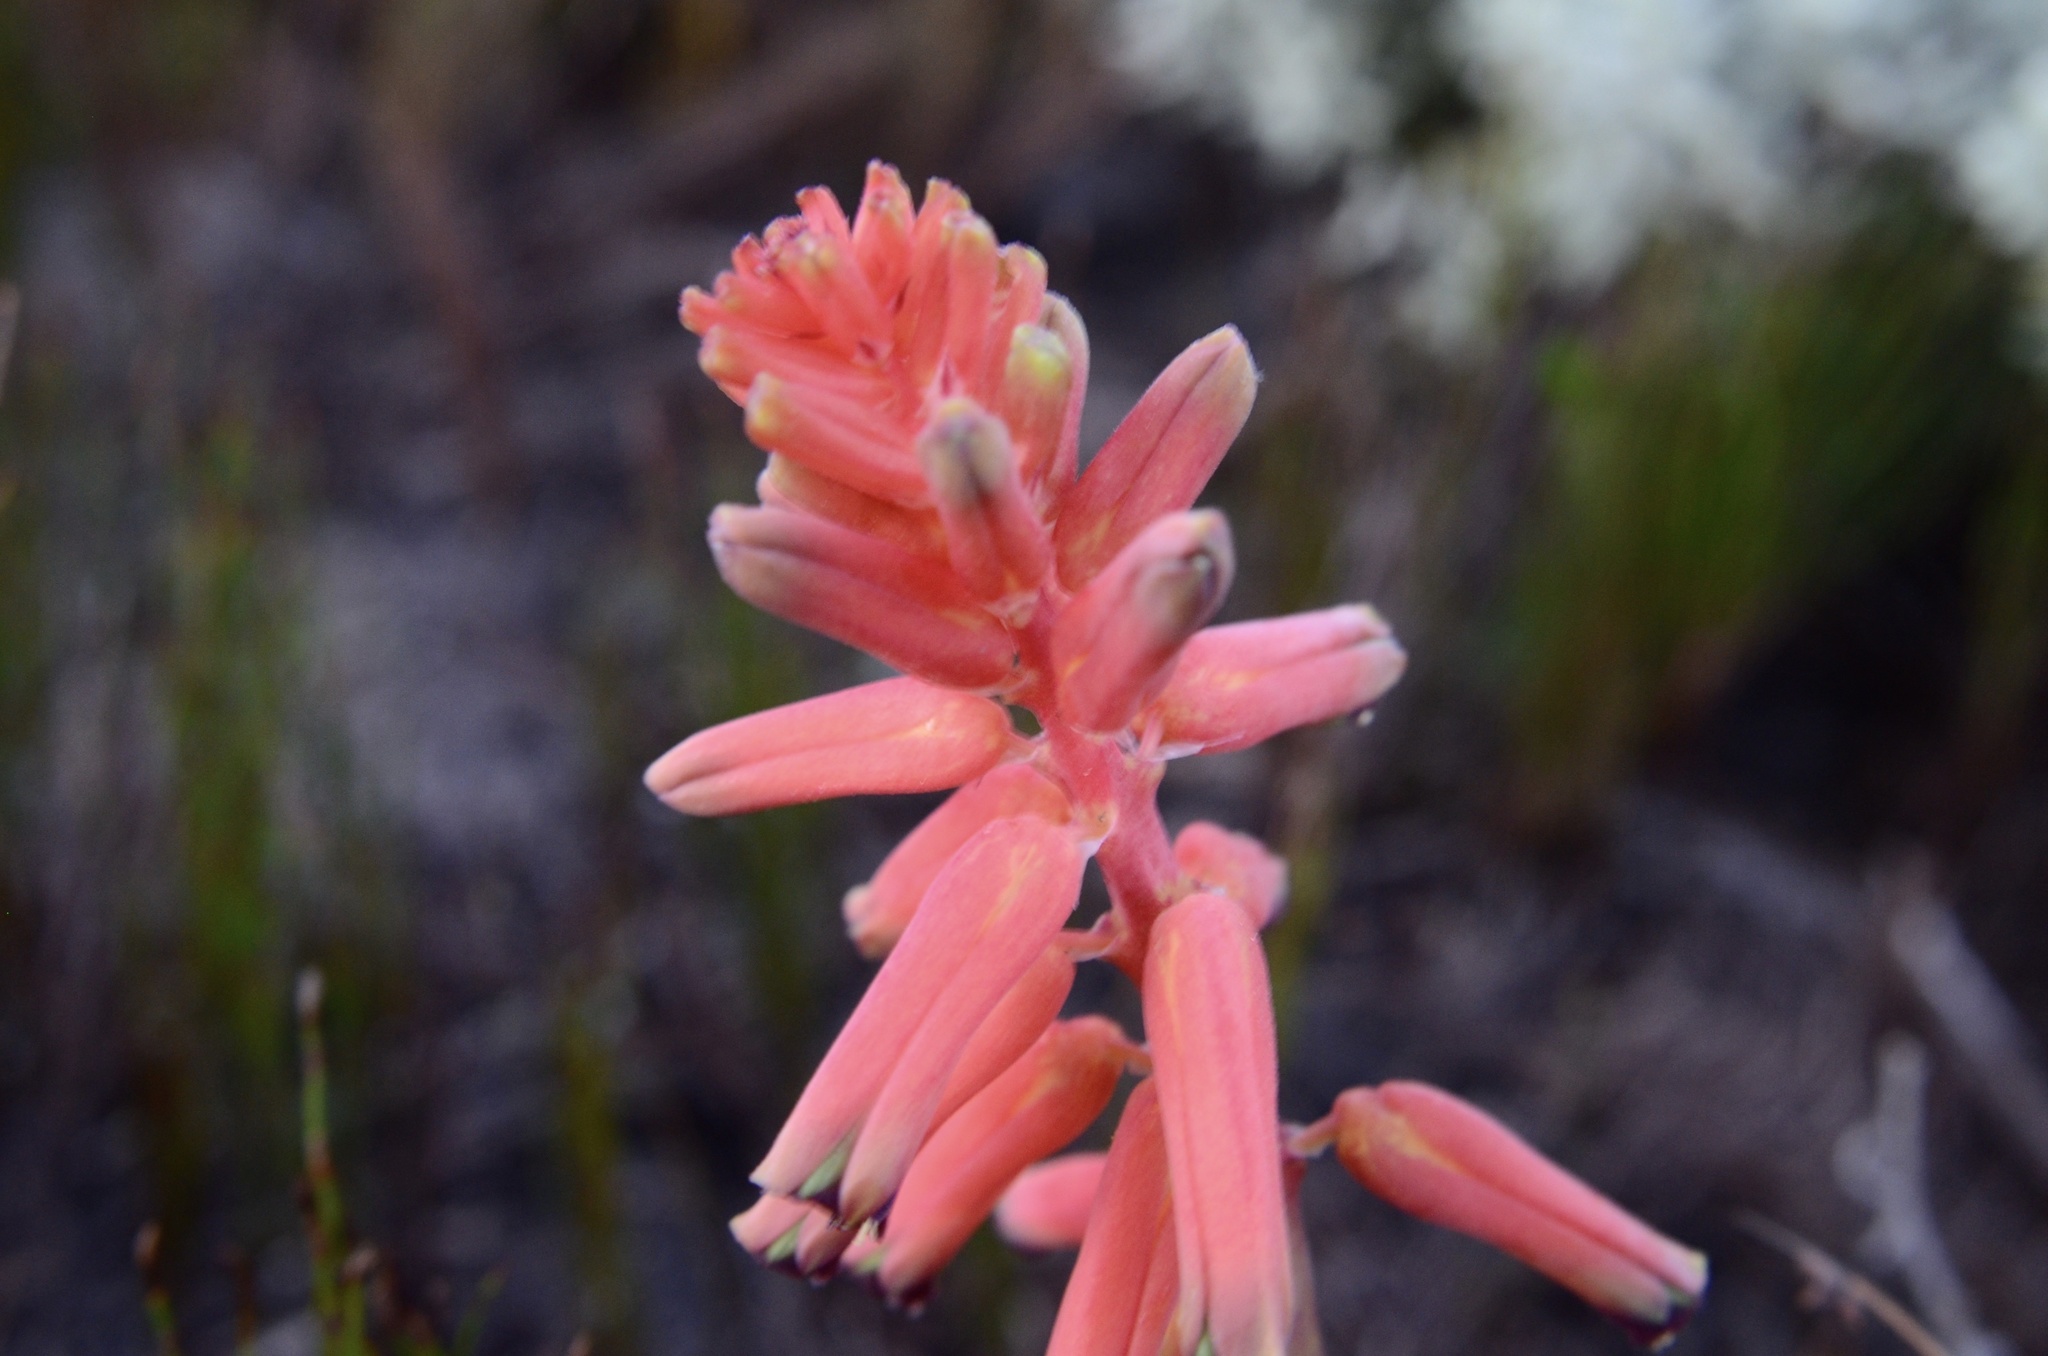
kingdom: Plantae
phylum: Tracheophyta
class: Liliopsida
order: Asparagales
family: Asparagaceae
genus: Lachenalia
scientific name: Lachenalia bulbifera
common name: Red lachenalia
